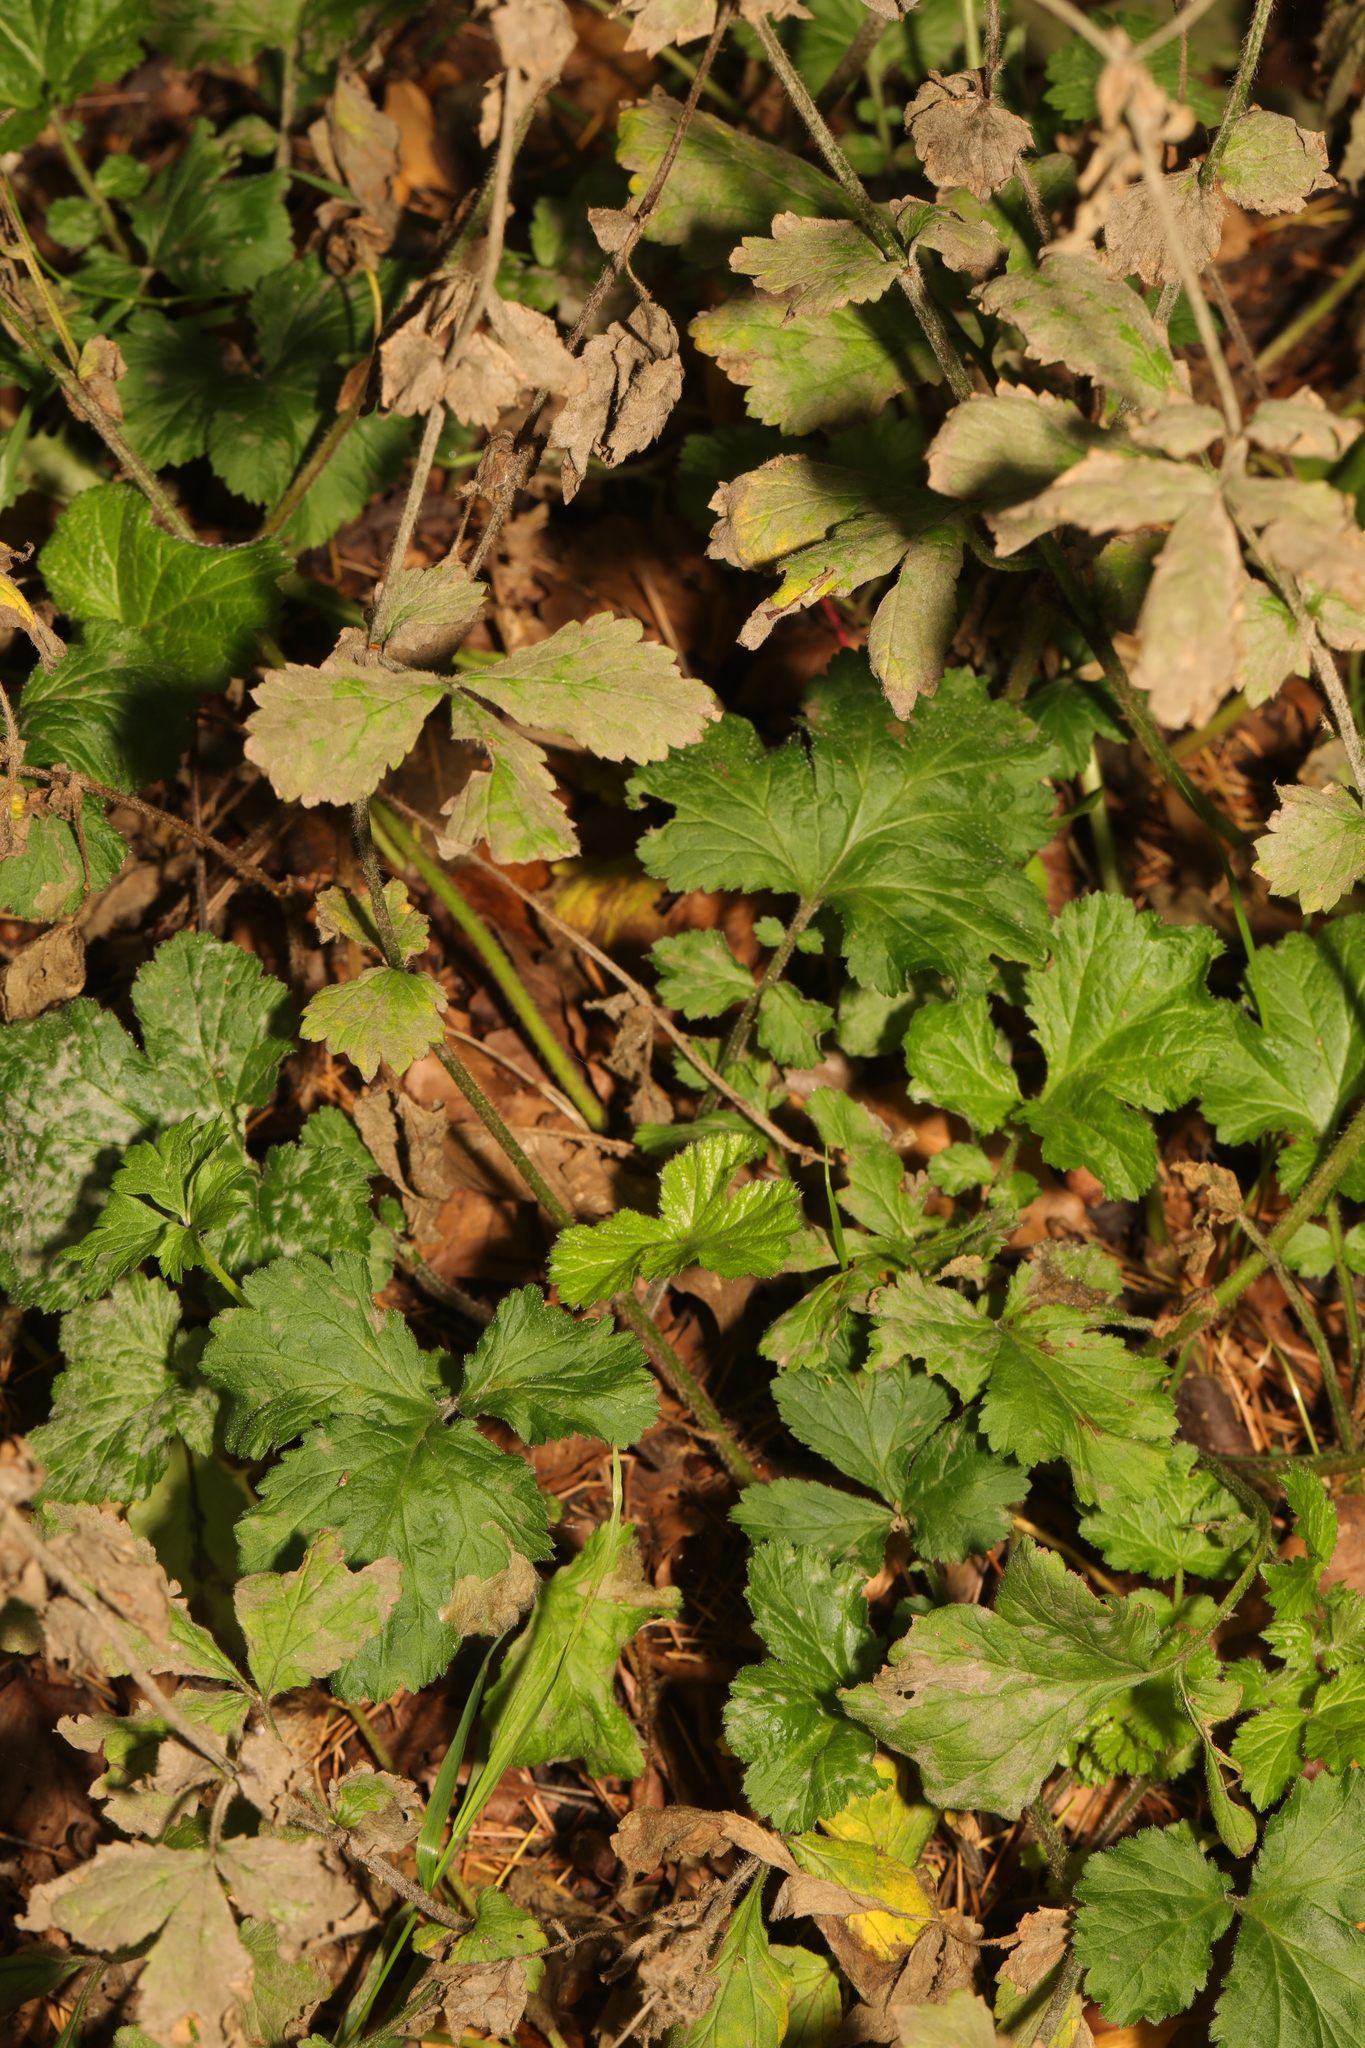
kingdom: Plantae
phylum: Tracheophyta
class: Magnoliopsida
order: Rosales
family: Rosaceae
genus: Geum
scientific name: Geum urbanum
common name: Wood avens
